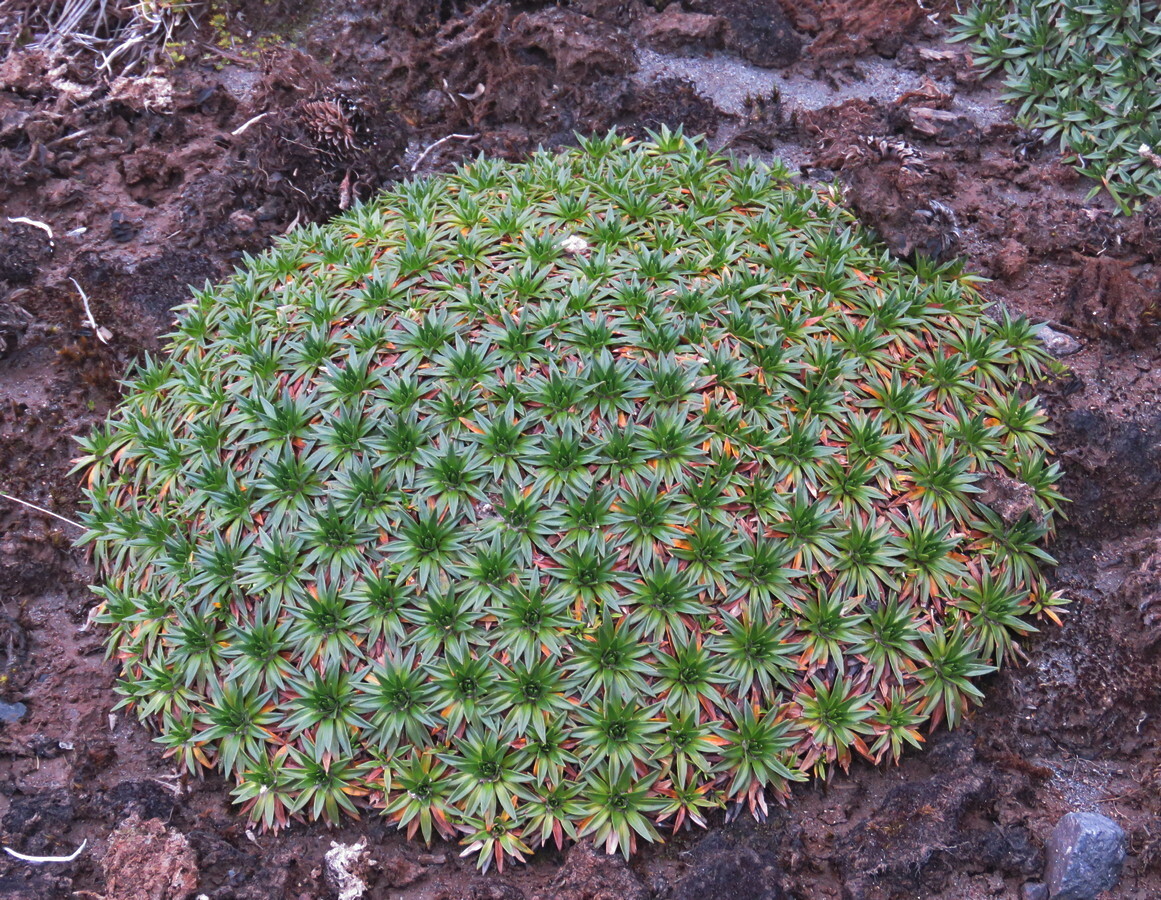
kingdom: Plantae
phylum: Tracheophyta
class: Magnoliopsida
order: Lamiales
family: Plantaginaceae
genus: Plantago
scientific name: Plantago rigida
